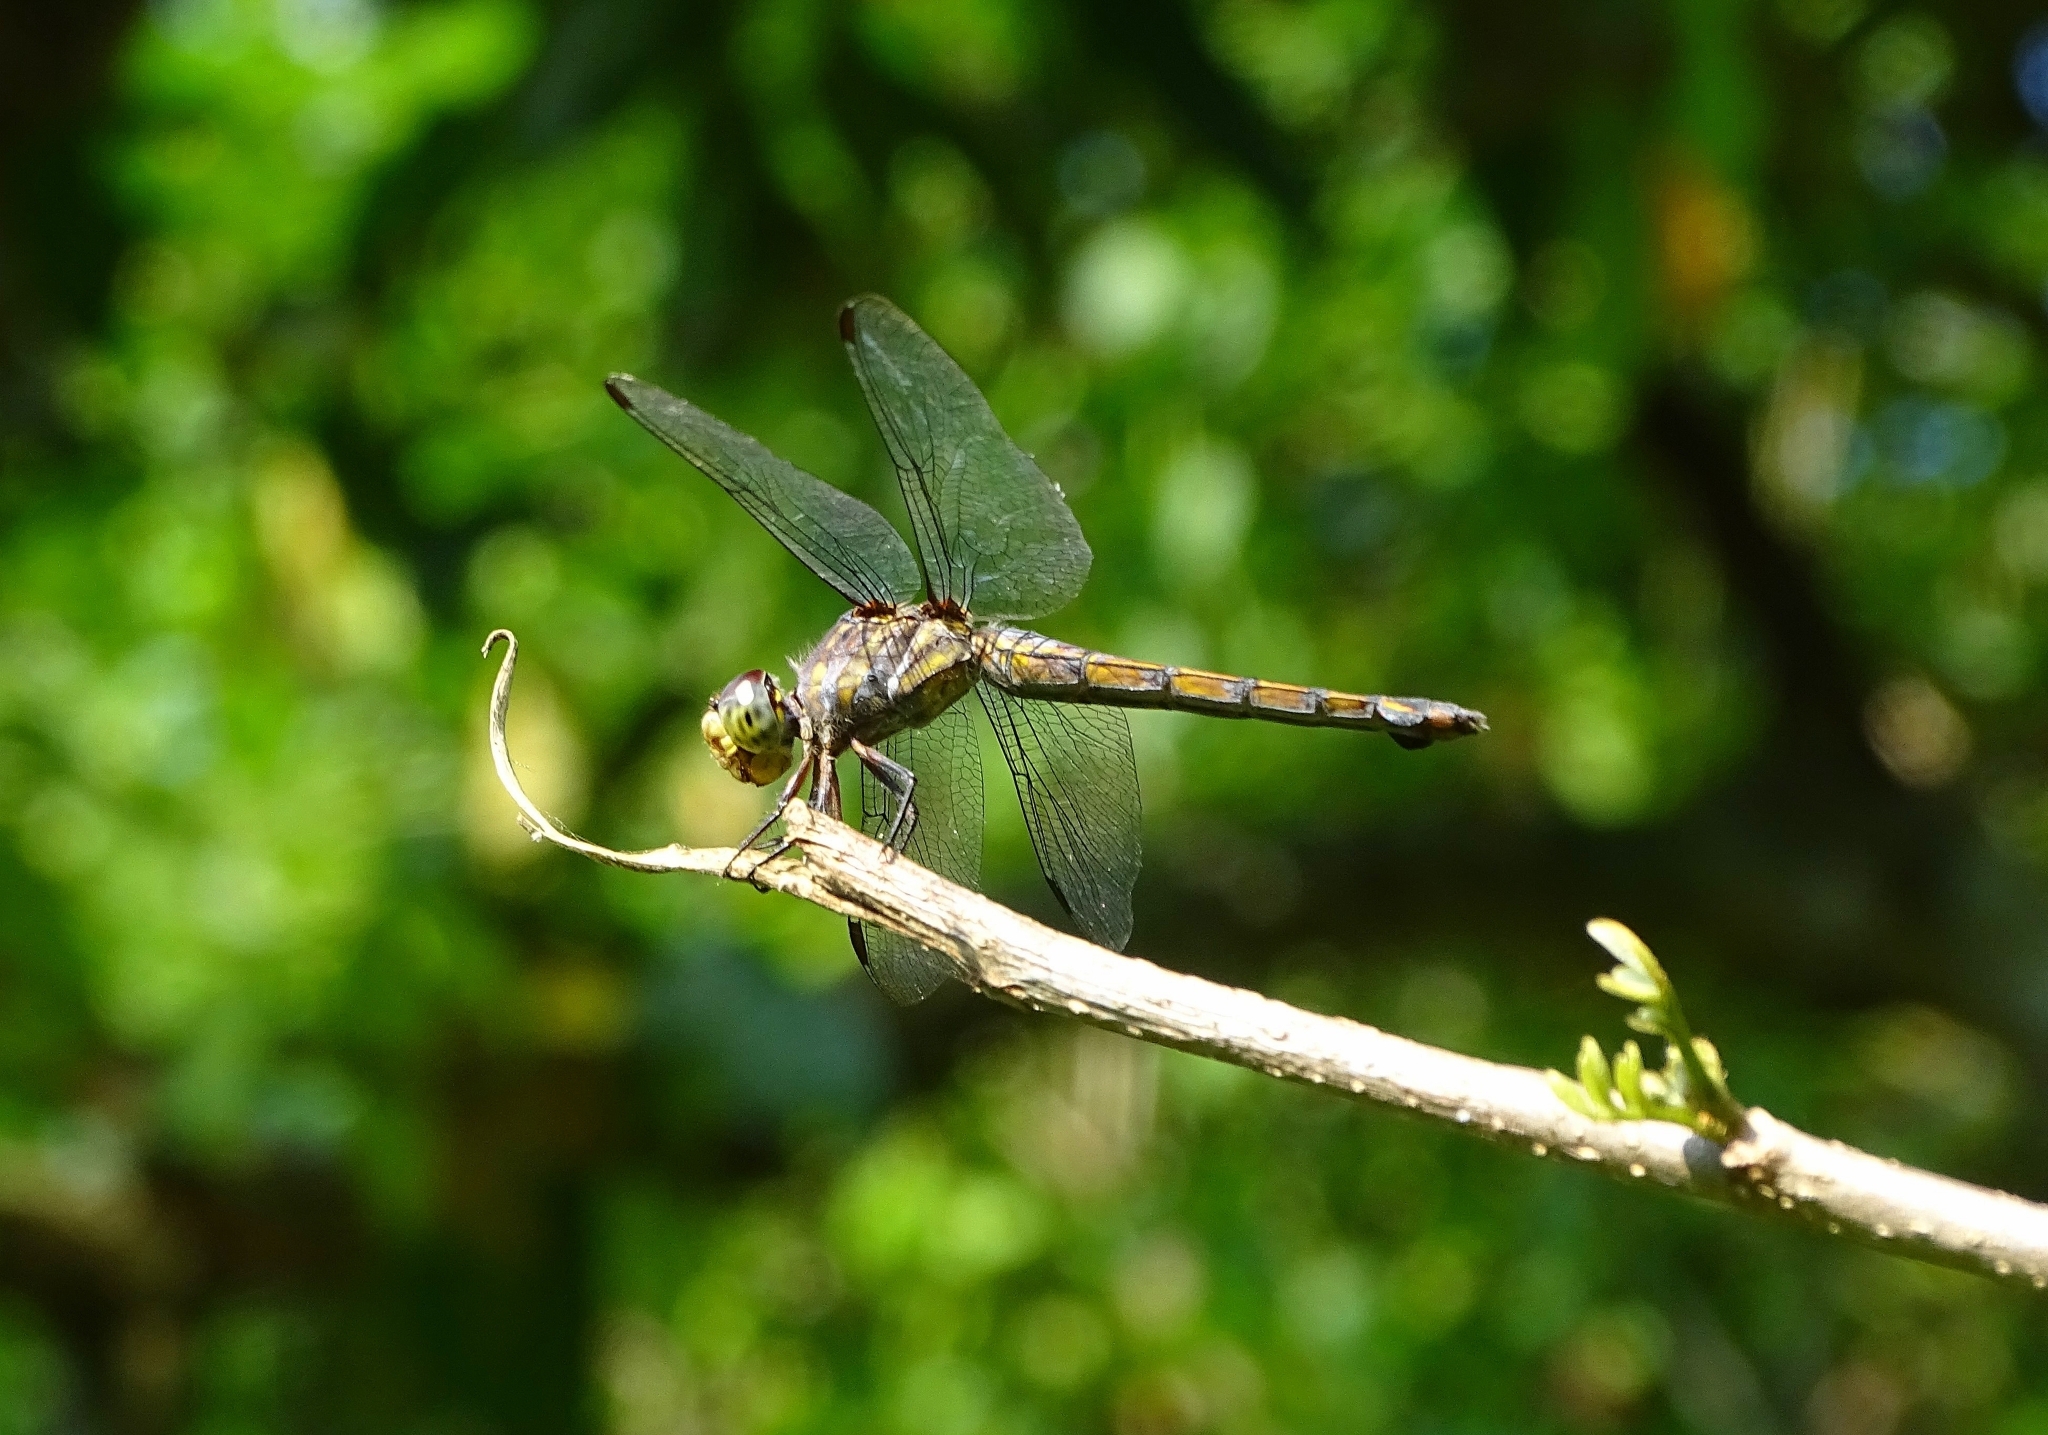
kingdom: Animalia
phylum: Arthropoda
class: Insecta
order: Odonata
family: Libellulidae
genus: Potamarcha
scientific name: Potamarcha congener
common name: Blue chaser
